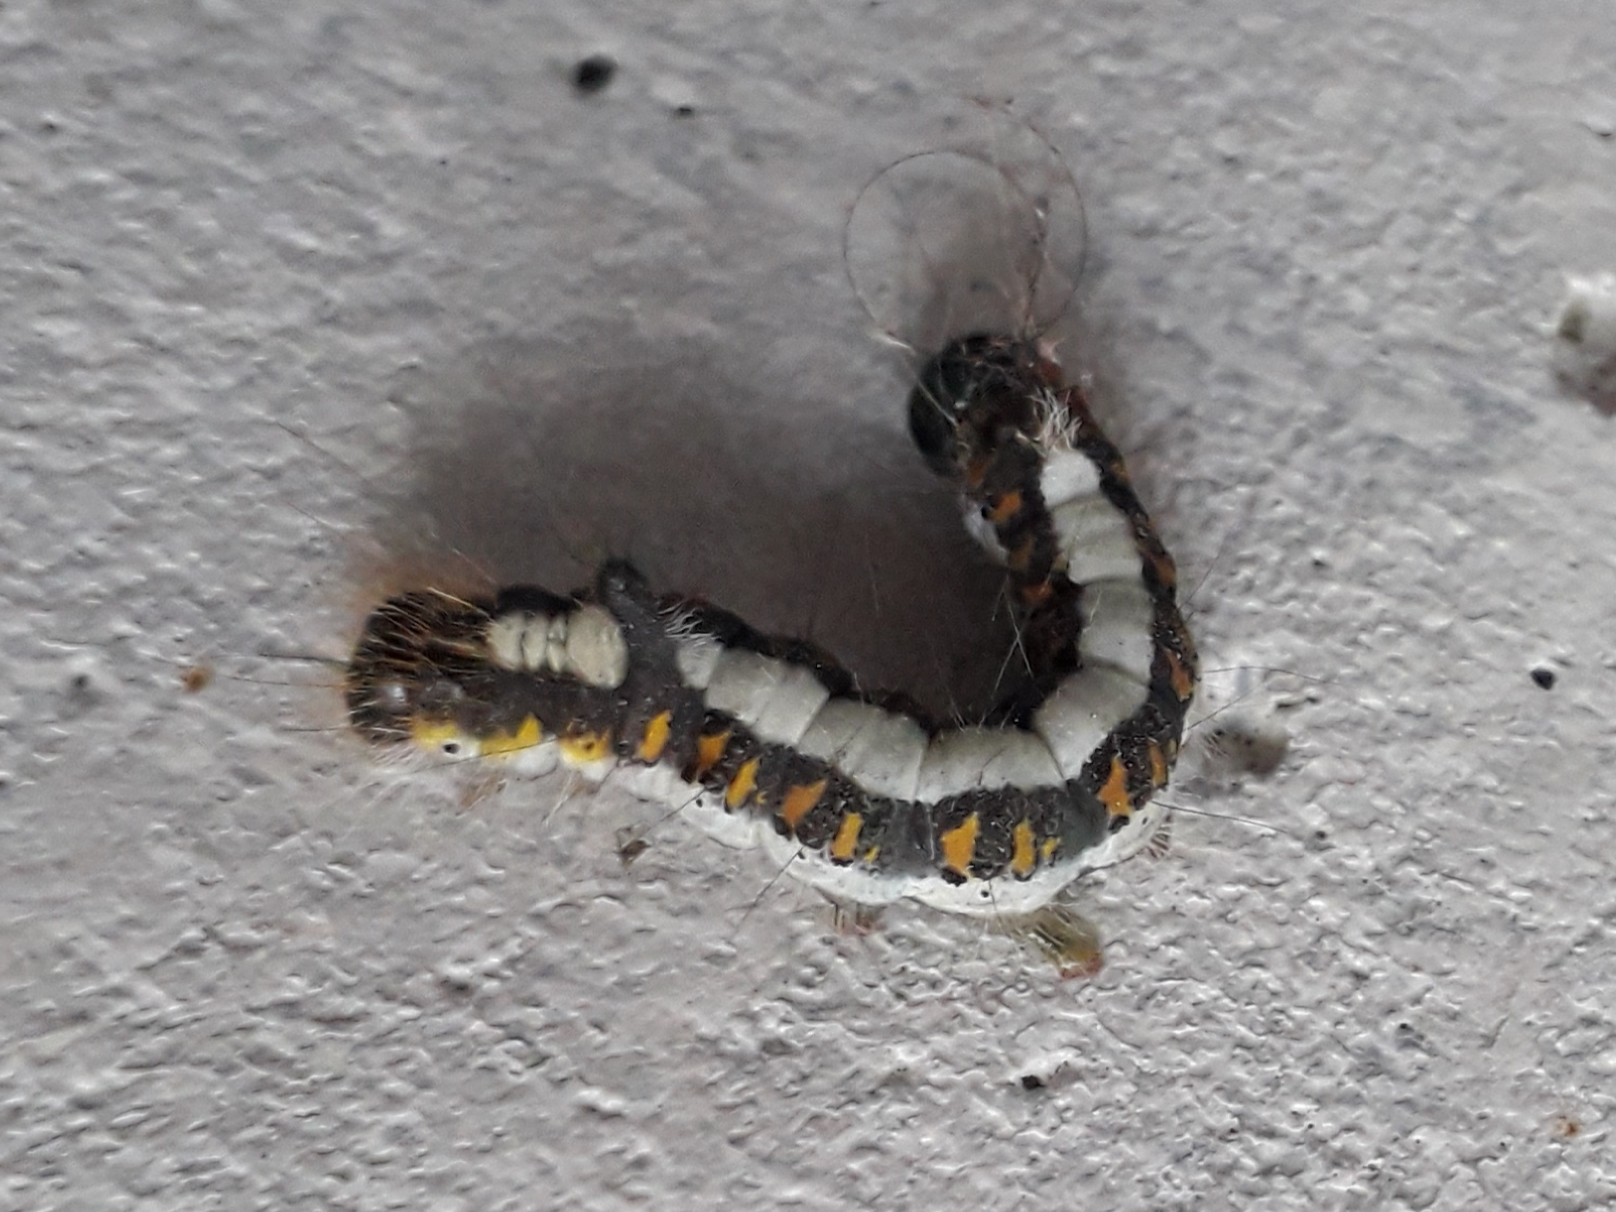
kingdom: Animalia
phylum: Arthropoda
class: Insecta
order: Lepidoptera
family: Noctuidae
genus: Acronicta
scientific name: Acronicta psi
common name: Grey dagger
